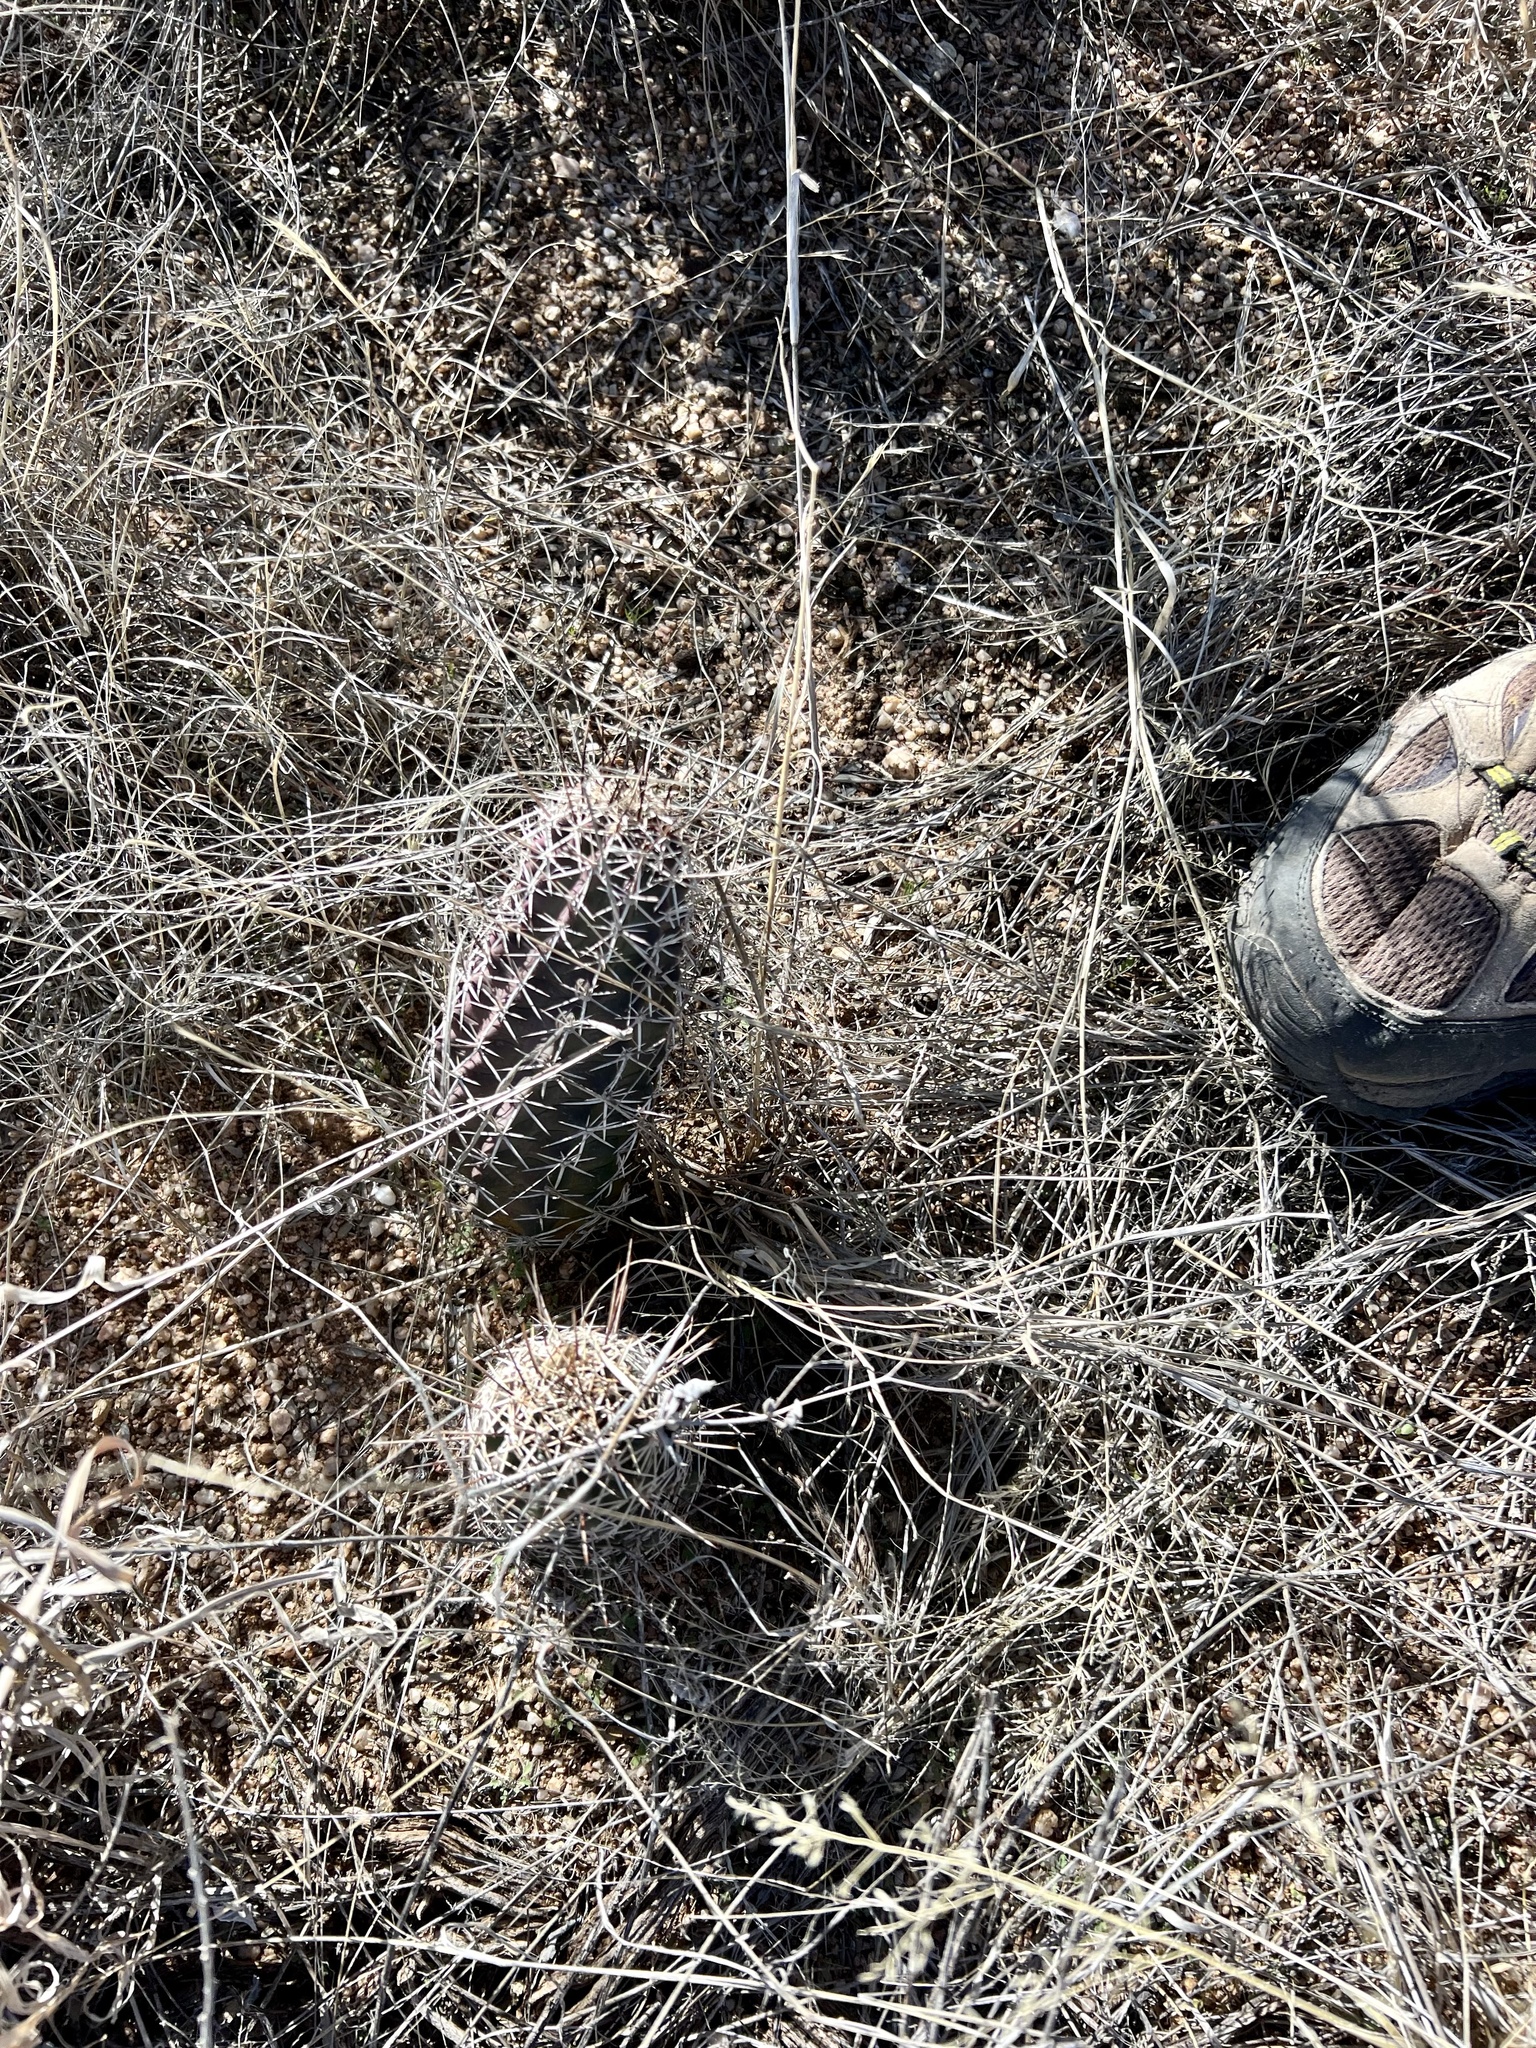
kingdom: Plantae
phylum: Tracheophyta
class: Magnoliopsida
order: Caryophyllales
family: Cactaceae
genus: Echinocereus
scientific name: Echinocereus fendleri
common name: Fendler's hedgehog cactus
